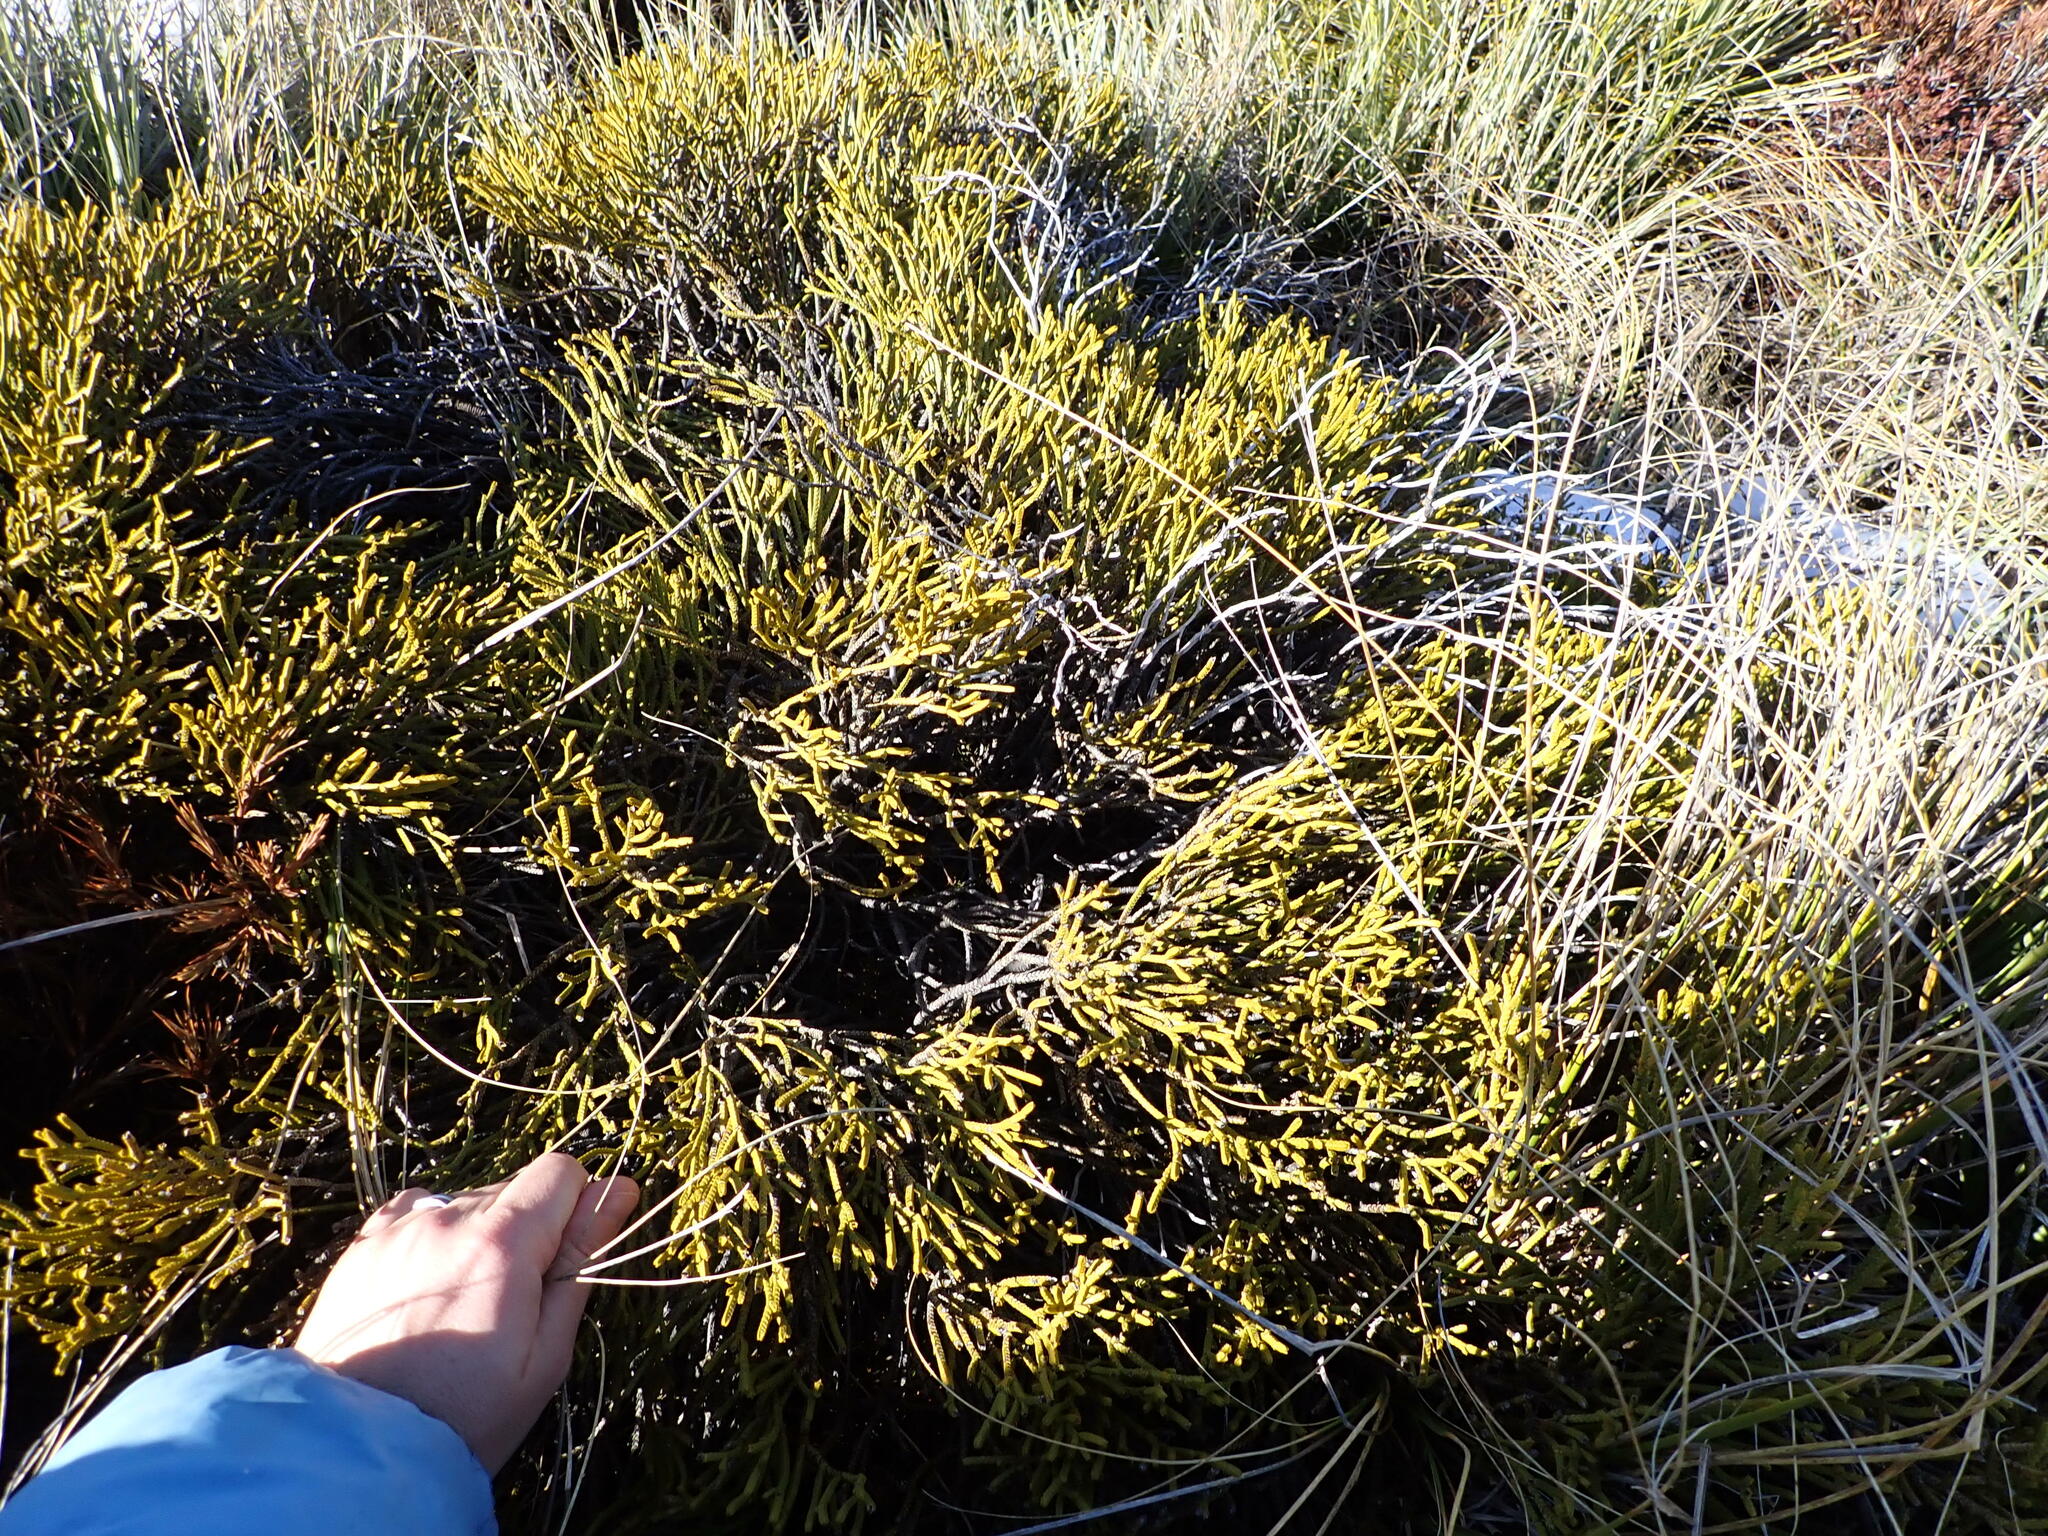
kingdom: Plantae
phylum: Tracheophyta
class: Magnoliopsida
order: Lamiales
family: Plantaginaceae
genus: Veronica
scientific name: Veronica lycopodioides
